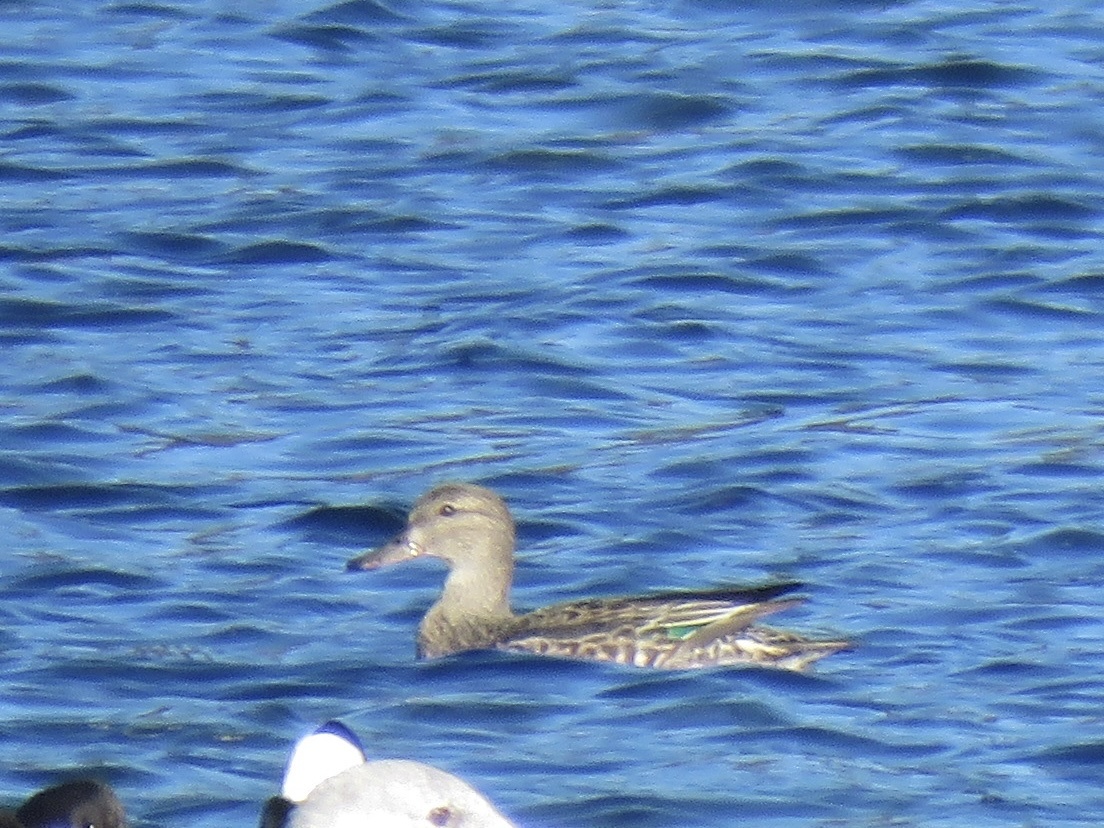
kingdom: Animalia
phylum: Chordata
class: Aves
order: Anseriformes
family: Anatidae
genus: Anas
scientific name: Anas crecca
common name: Eurasian teal
